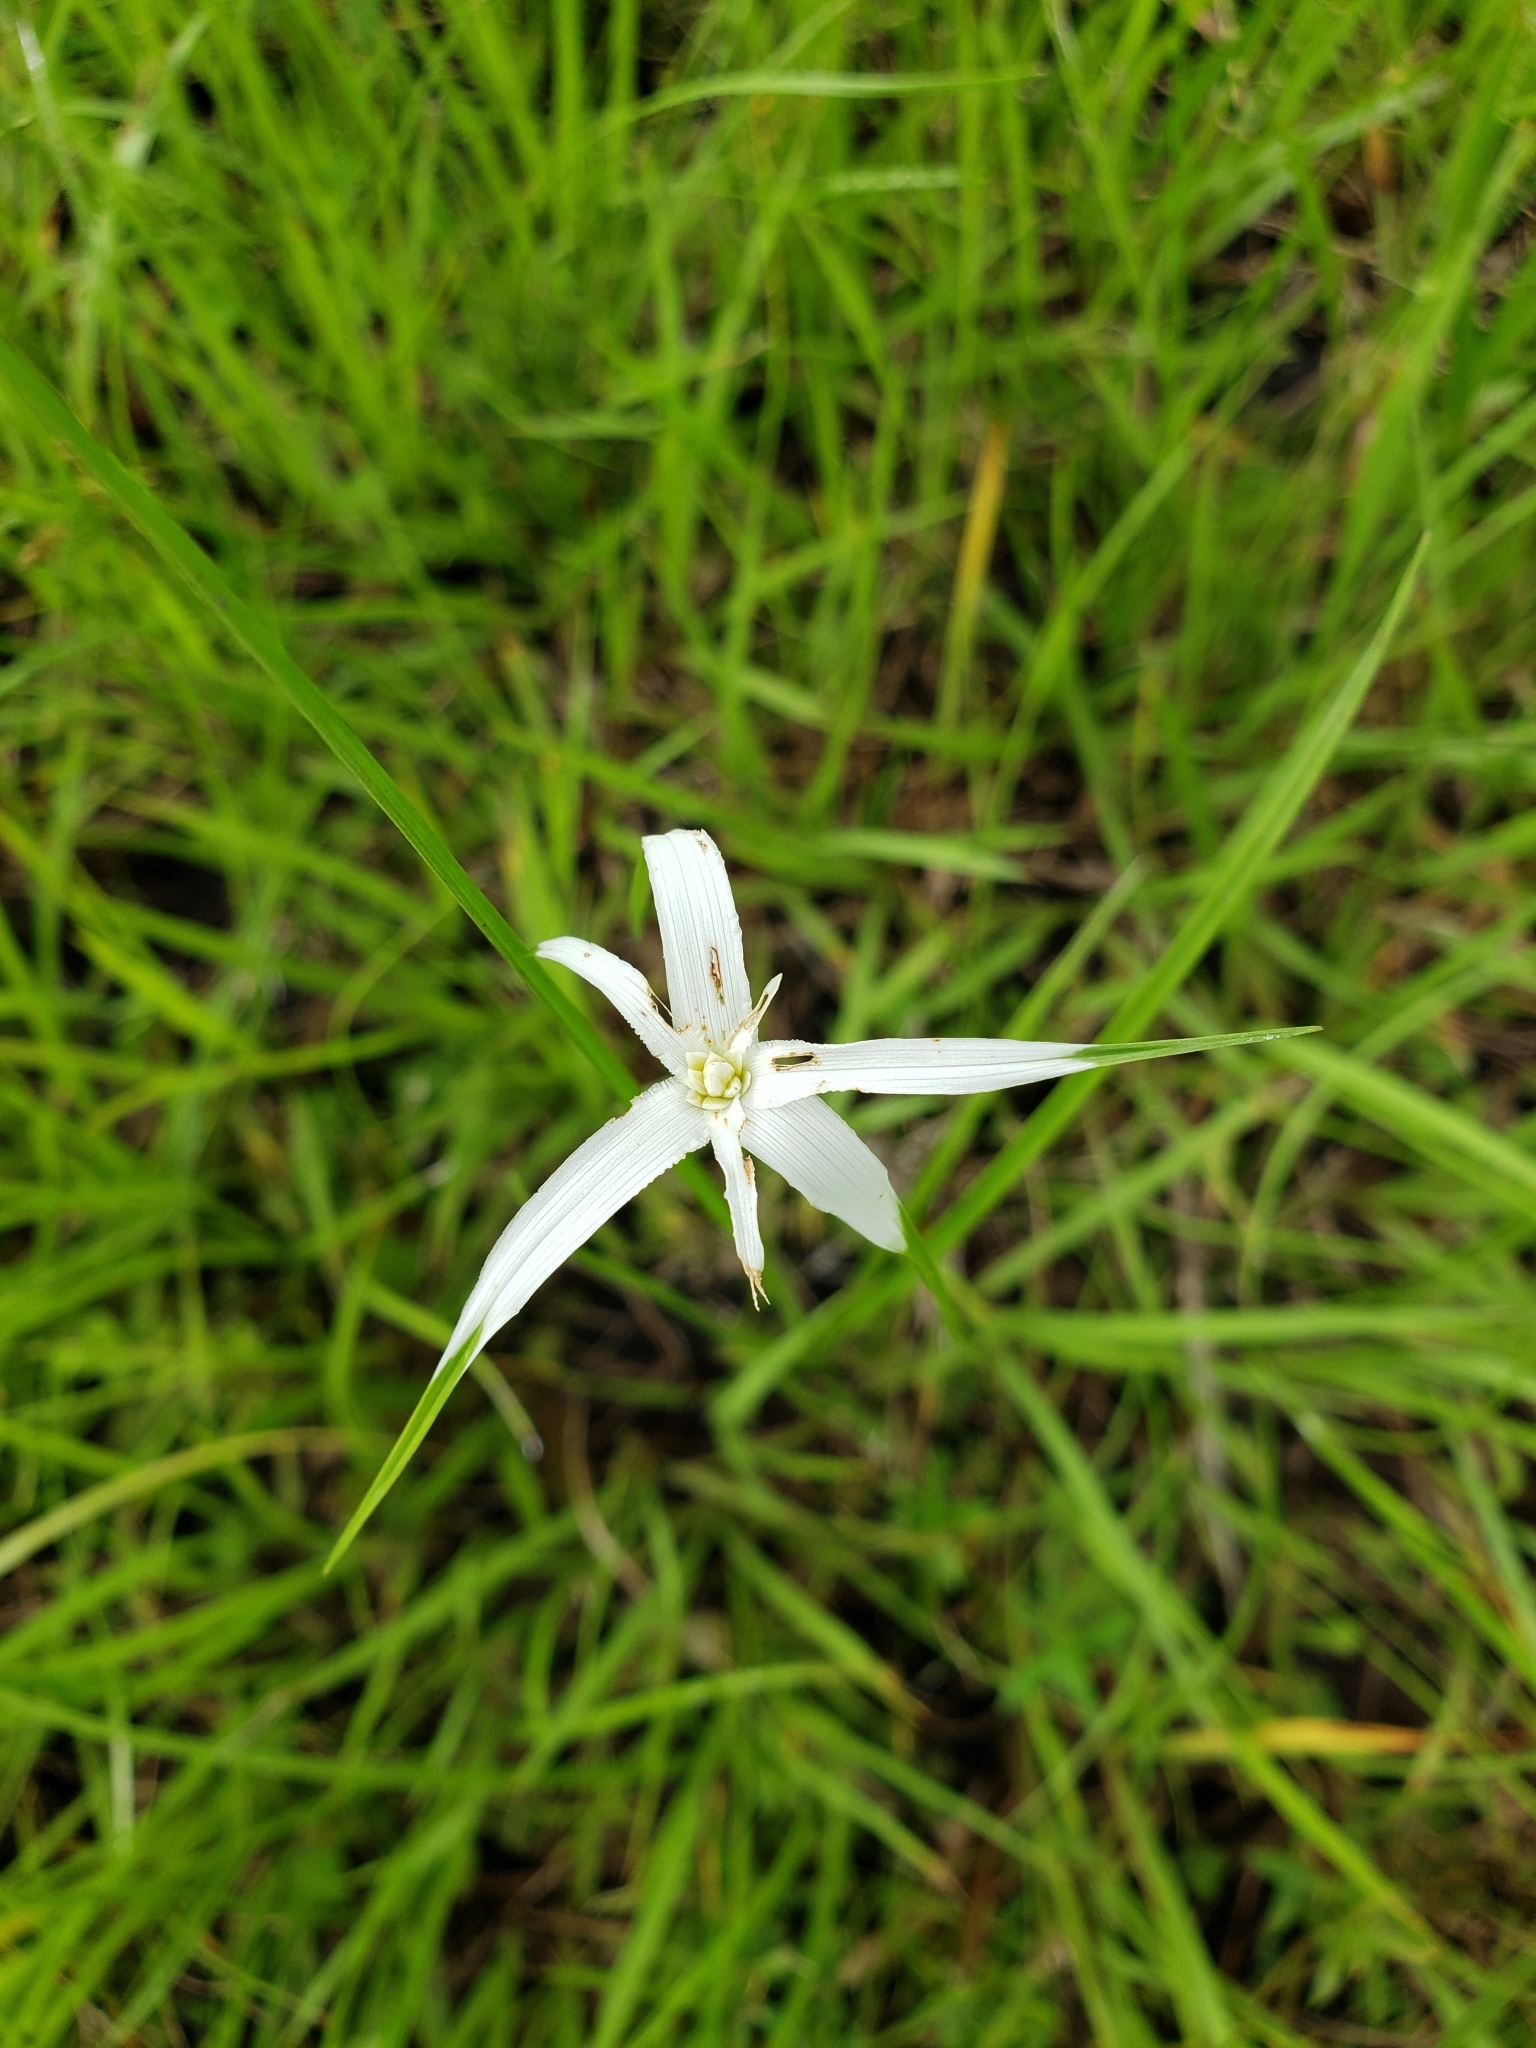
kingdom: Plantae
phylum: Tracheophyta
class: Liliopsida
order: Poales
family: Cyperaceae
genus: Rhynchospora
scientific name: Rhynchospora colorata
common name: Star sedge
